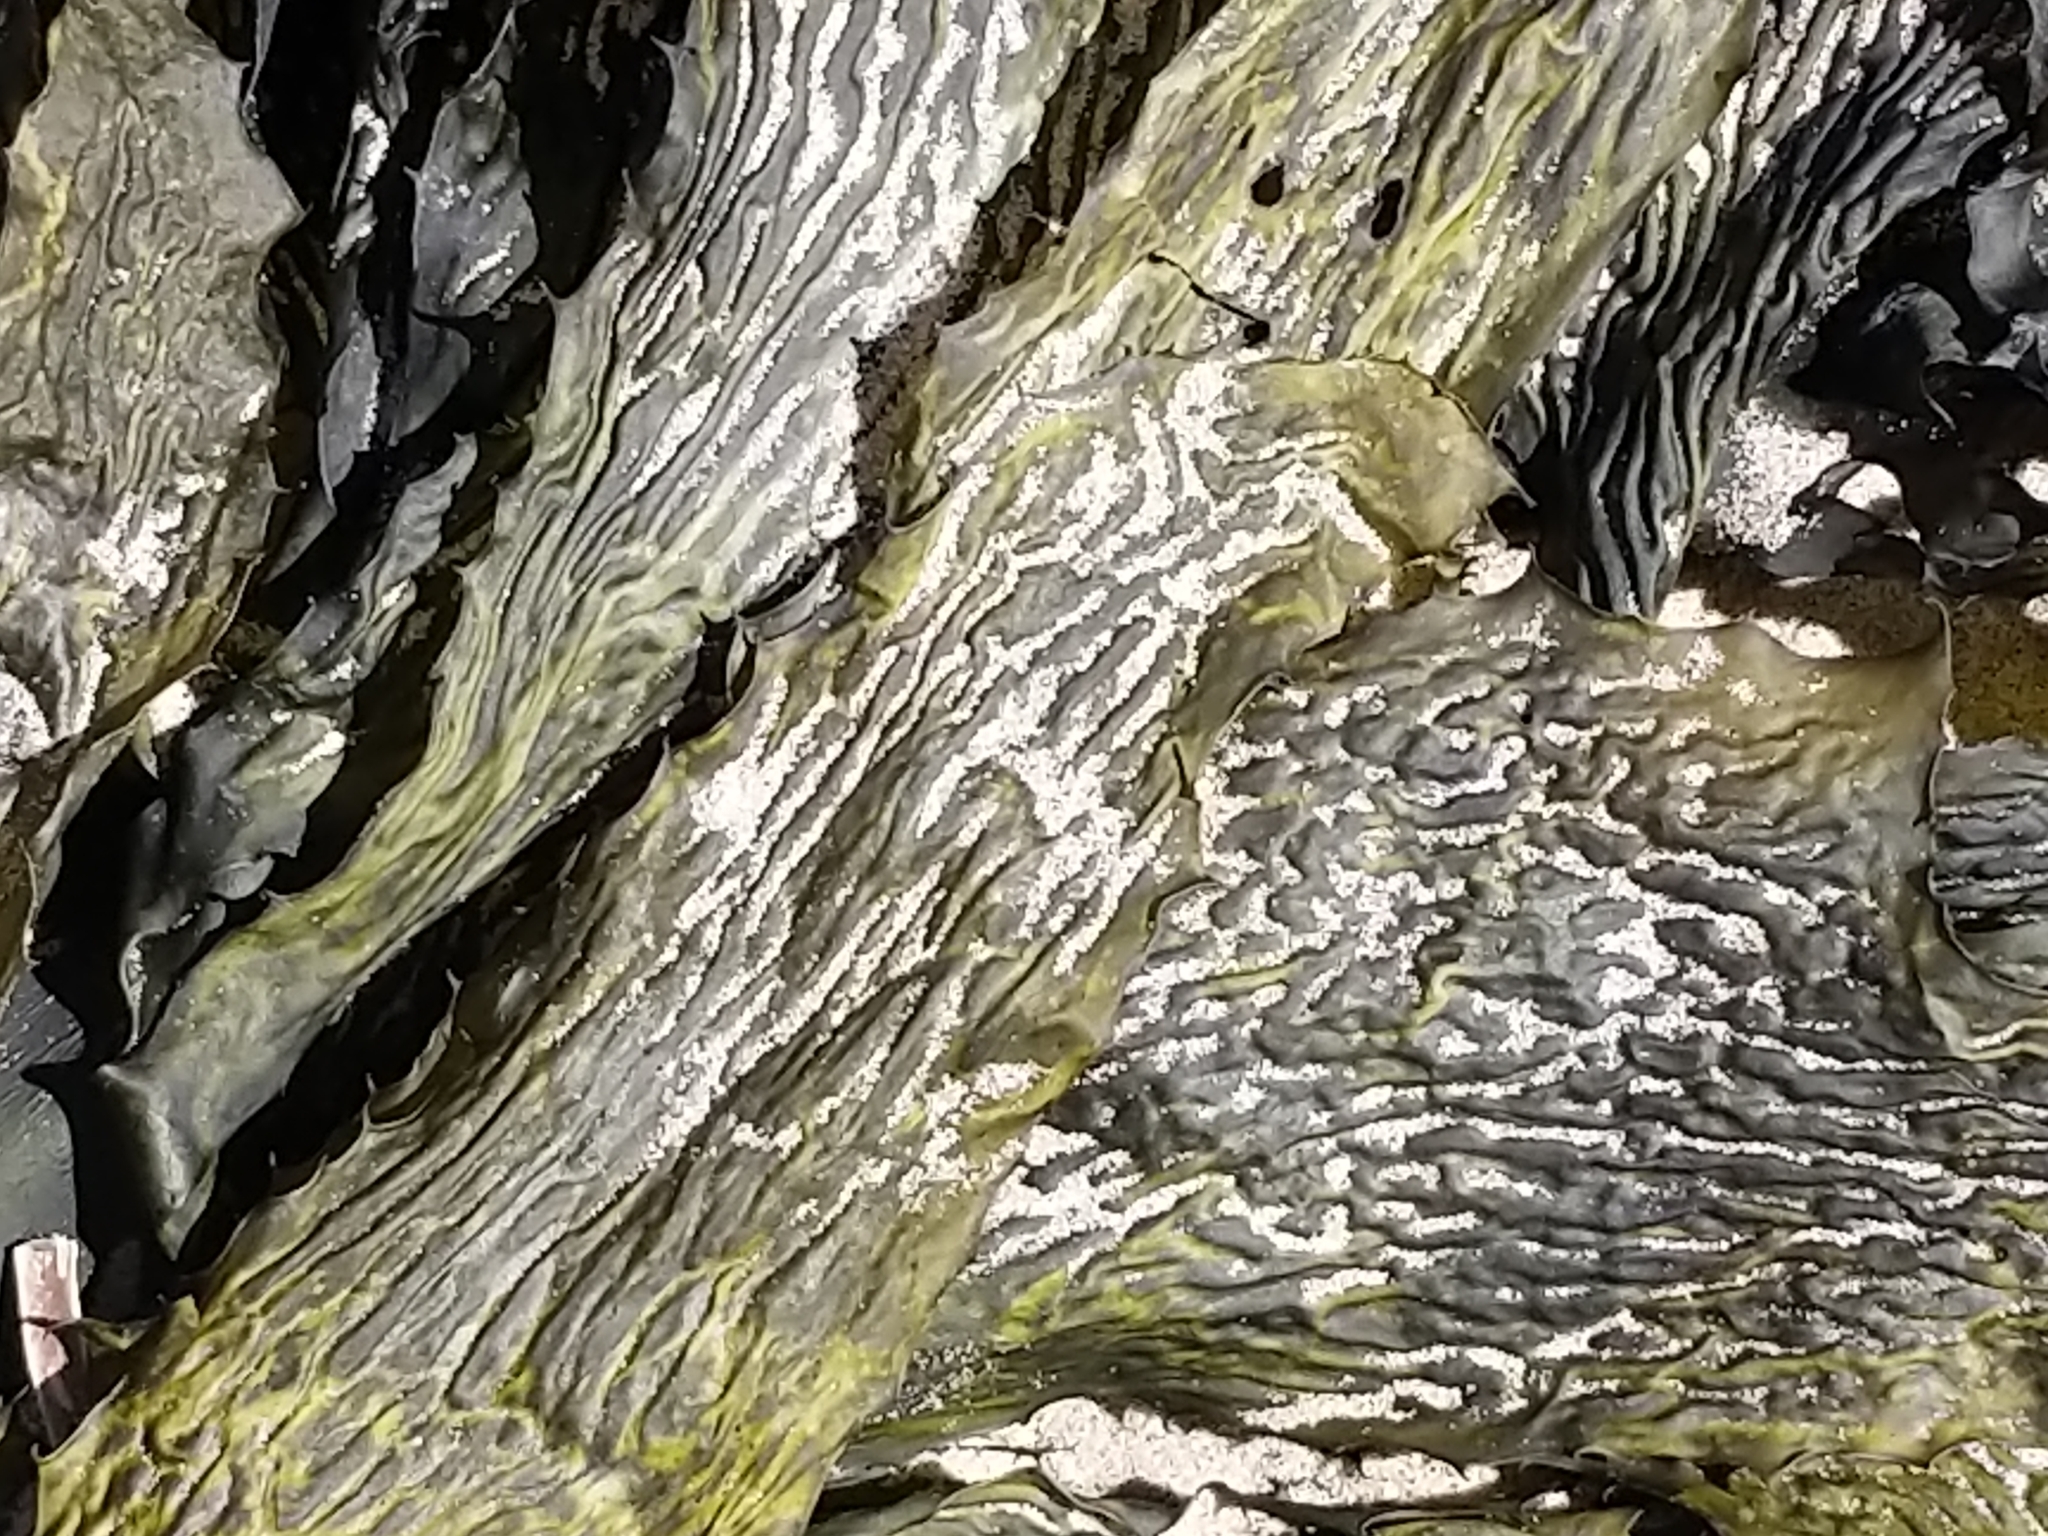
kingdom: Chromista
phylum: Ochrophyta
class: Phaeophyceae
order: Laminariales
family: Lessoniaceae
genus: Ecklonia
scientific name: Ecklonia radiata
